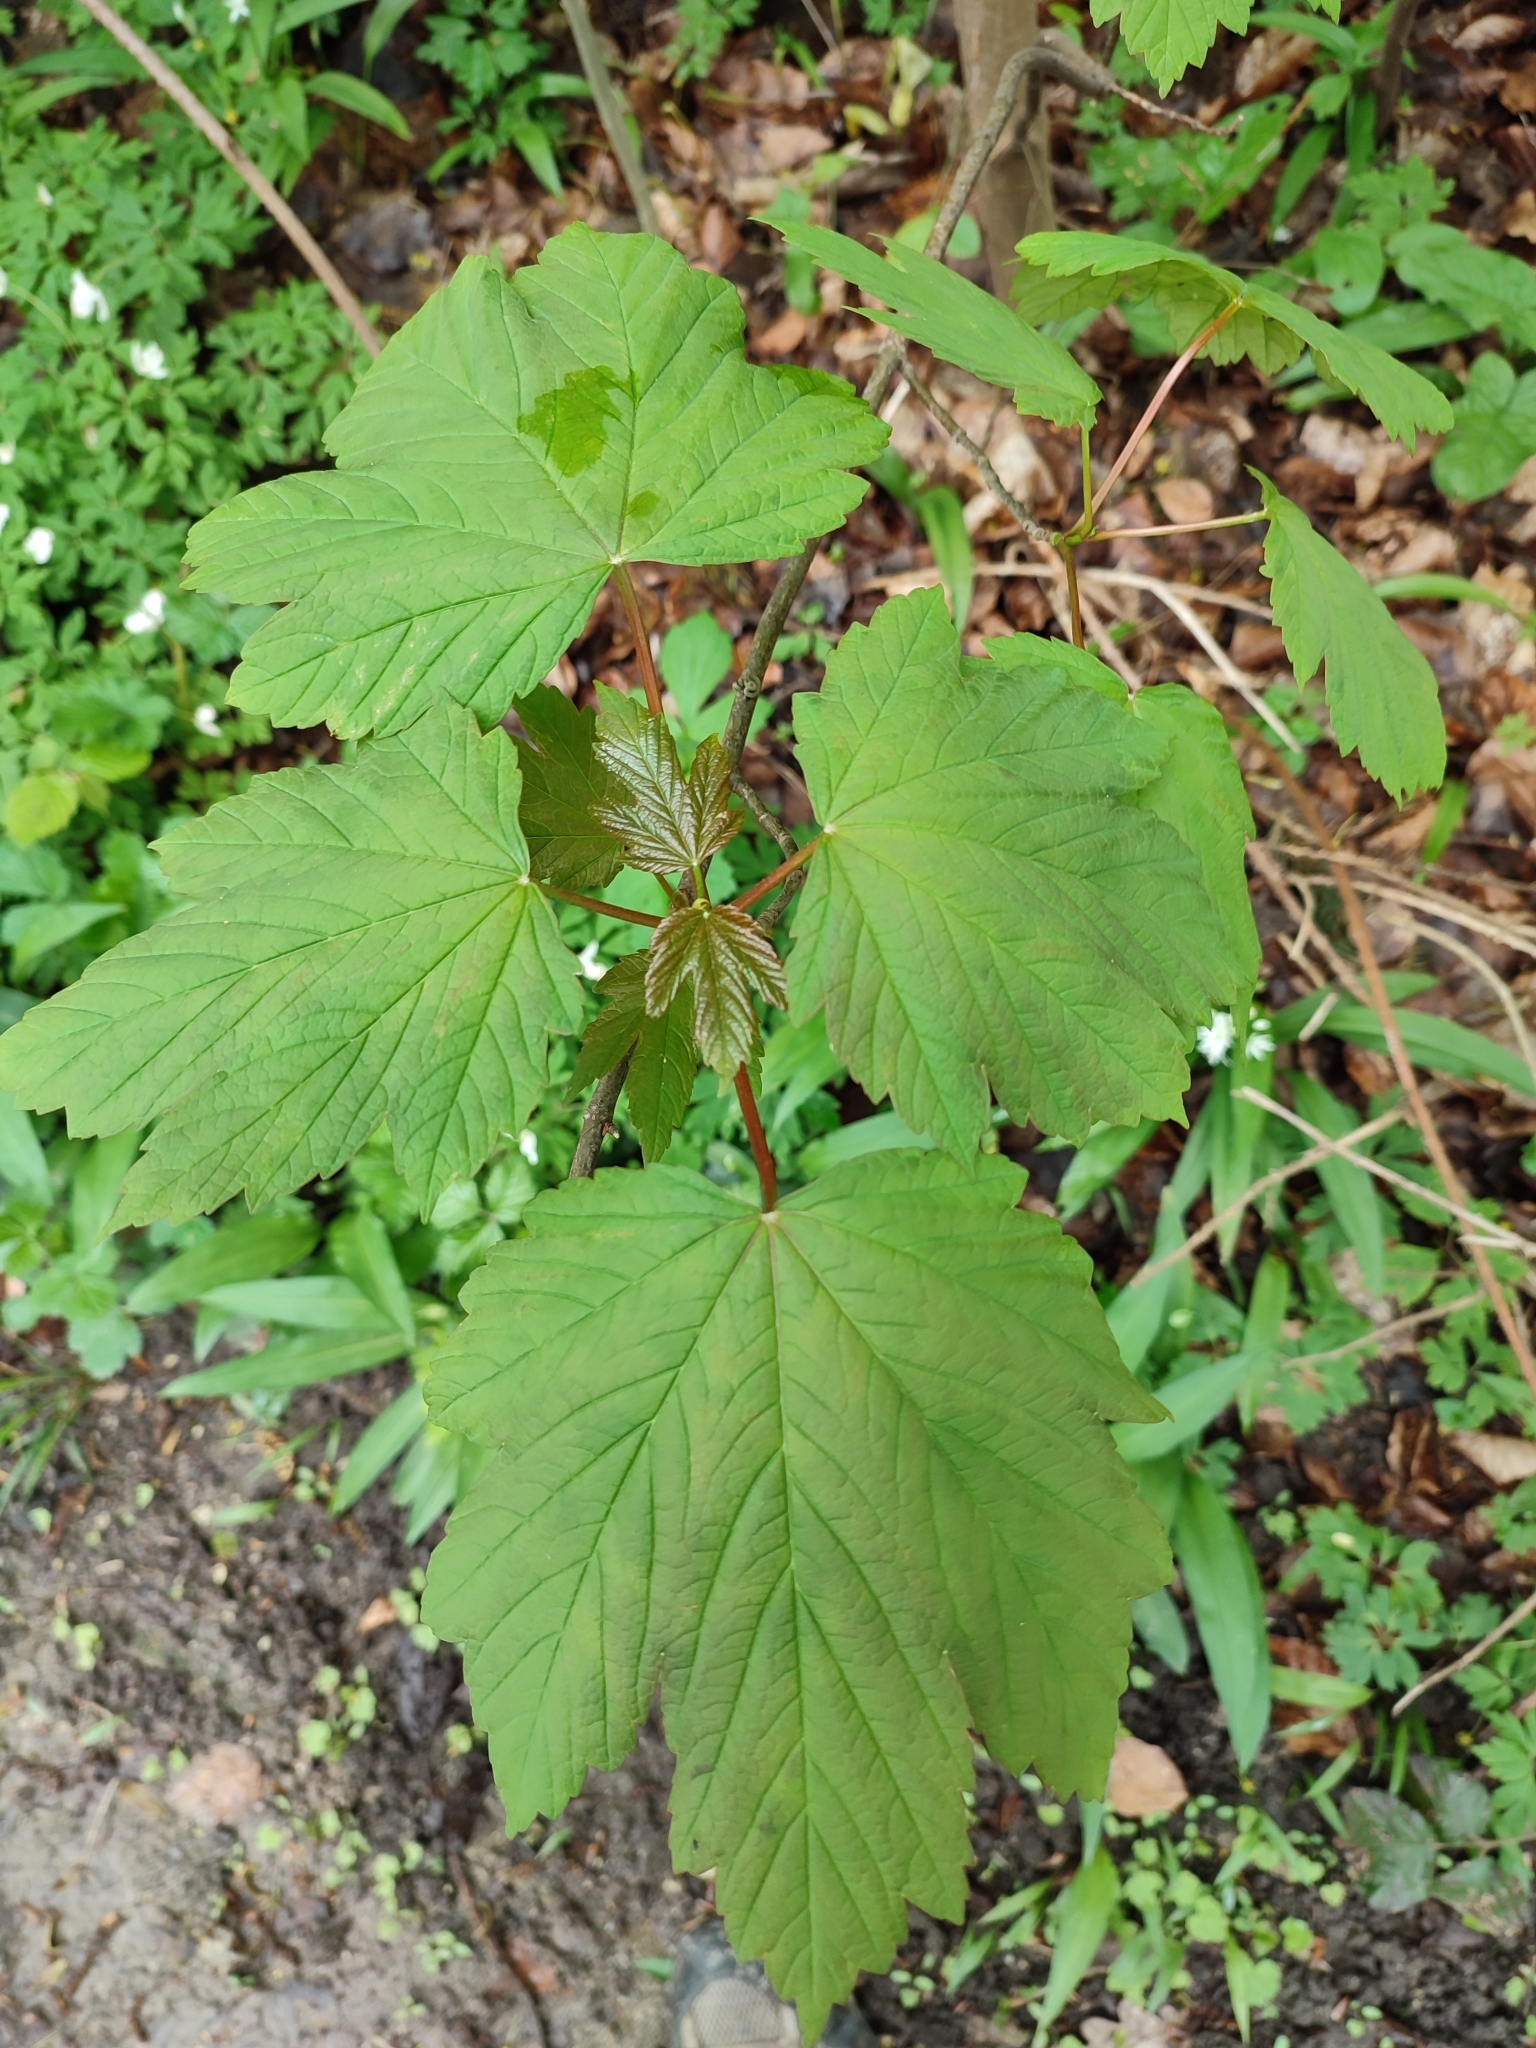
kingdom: Plantae
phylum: Tracheophyta
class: Magnoliopsida
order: Sapindales
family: Sapindaceae
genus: Acer
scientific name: Acer pseudoplatanus
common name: Sycamore
